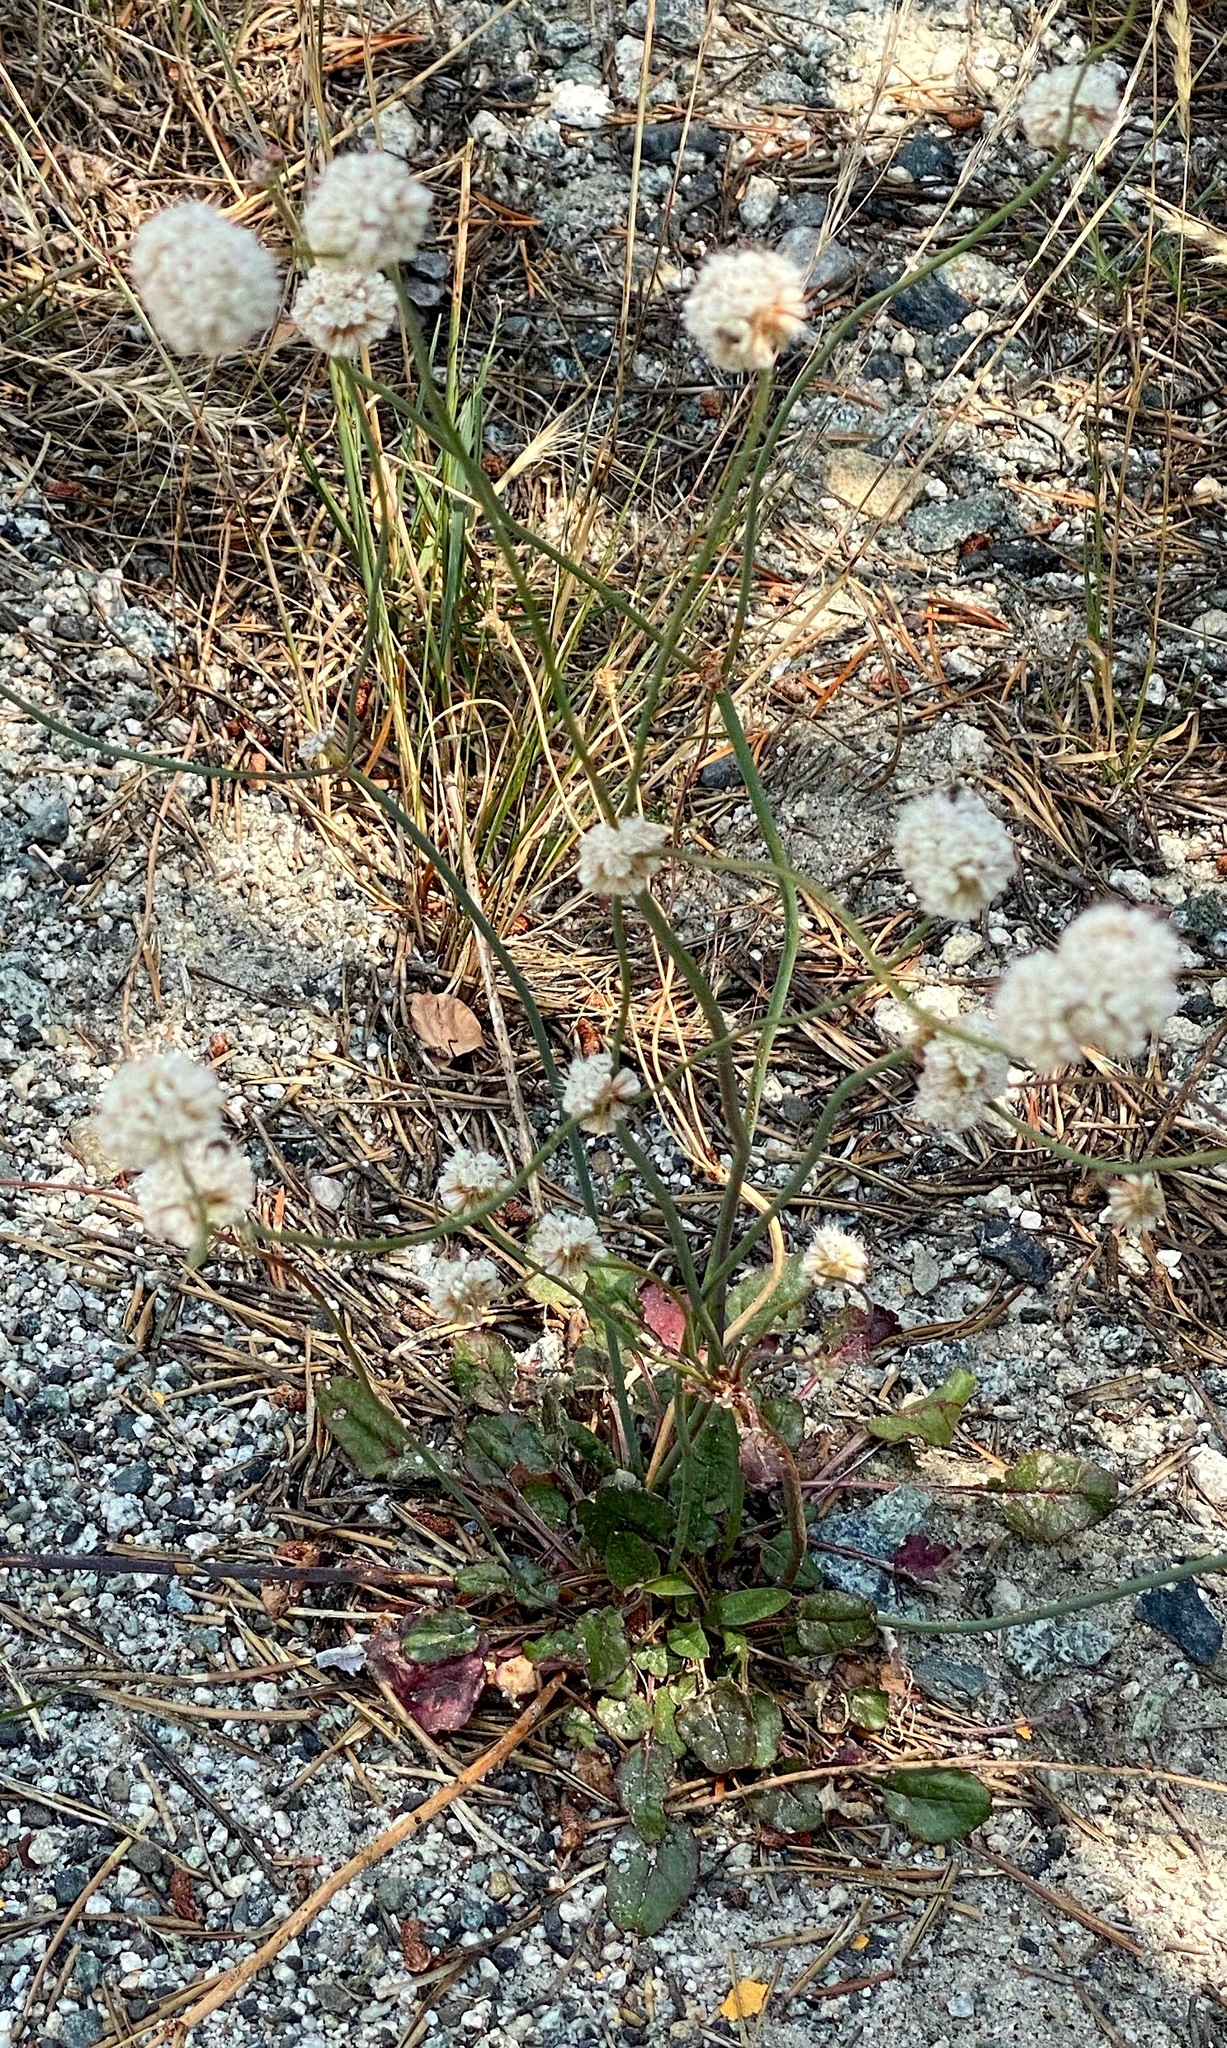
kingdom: Plantae
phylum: Tracheophyta
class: Magnoliopsida
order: Caryophyllales
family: Polygonaceae
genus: Eriogonum
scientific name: Eriogonum nudum
